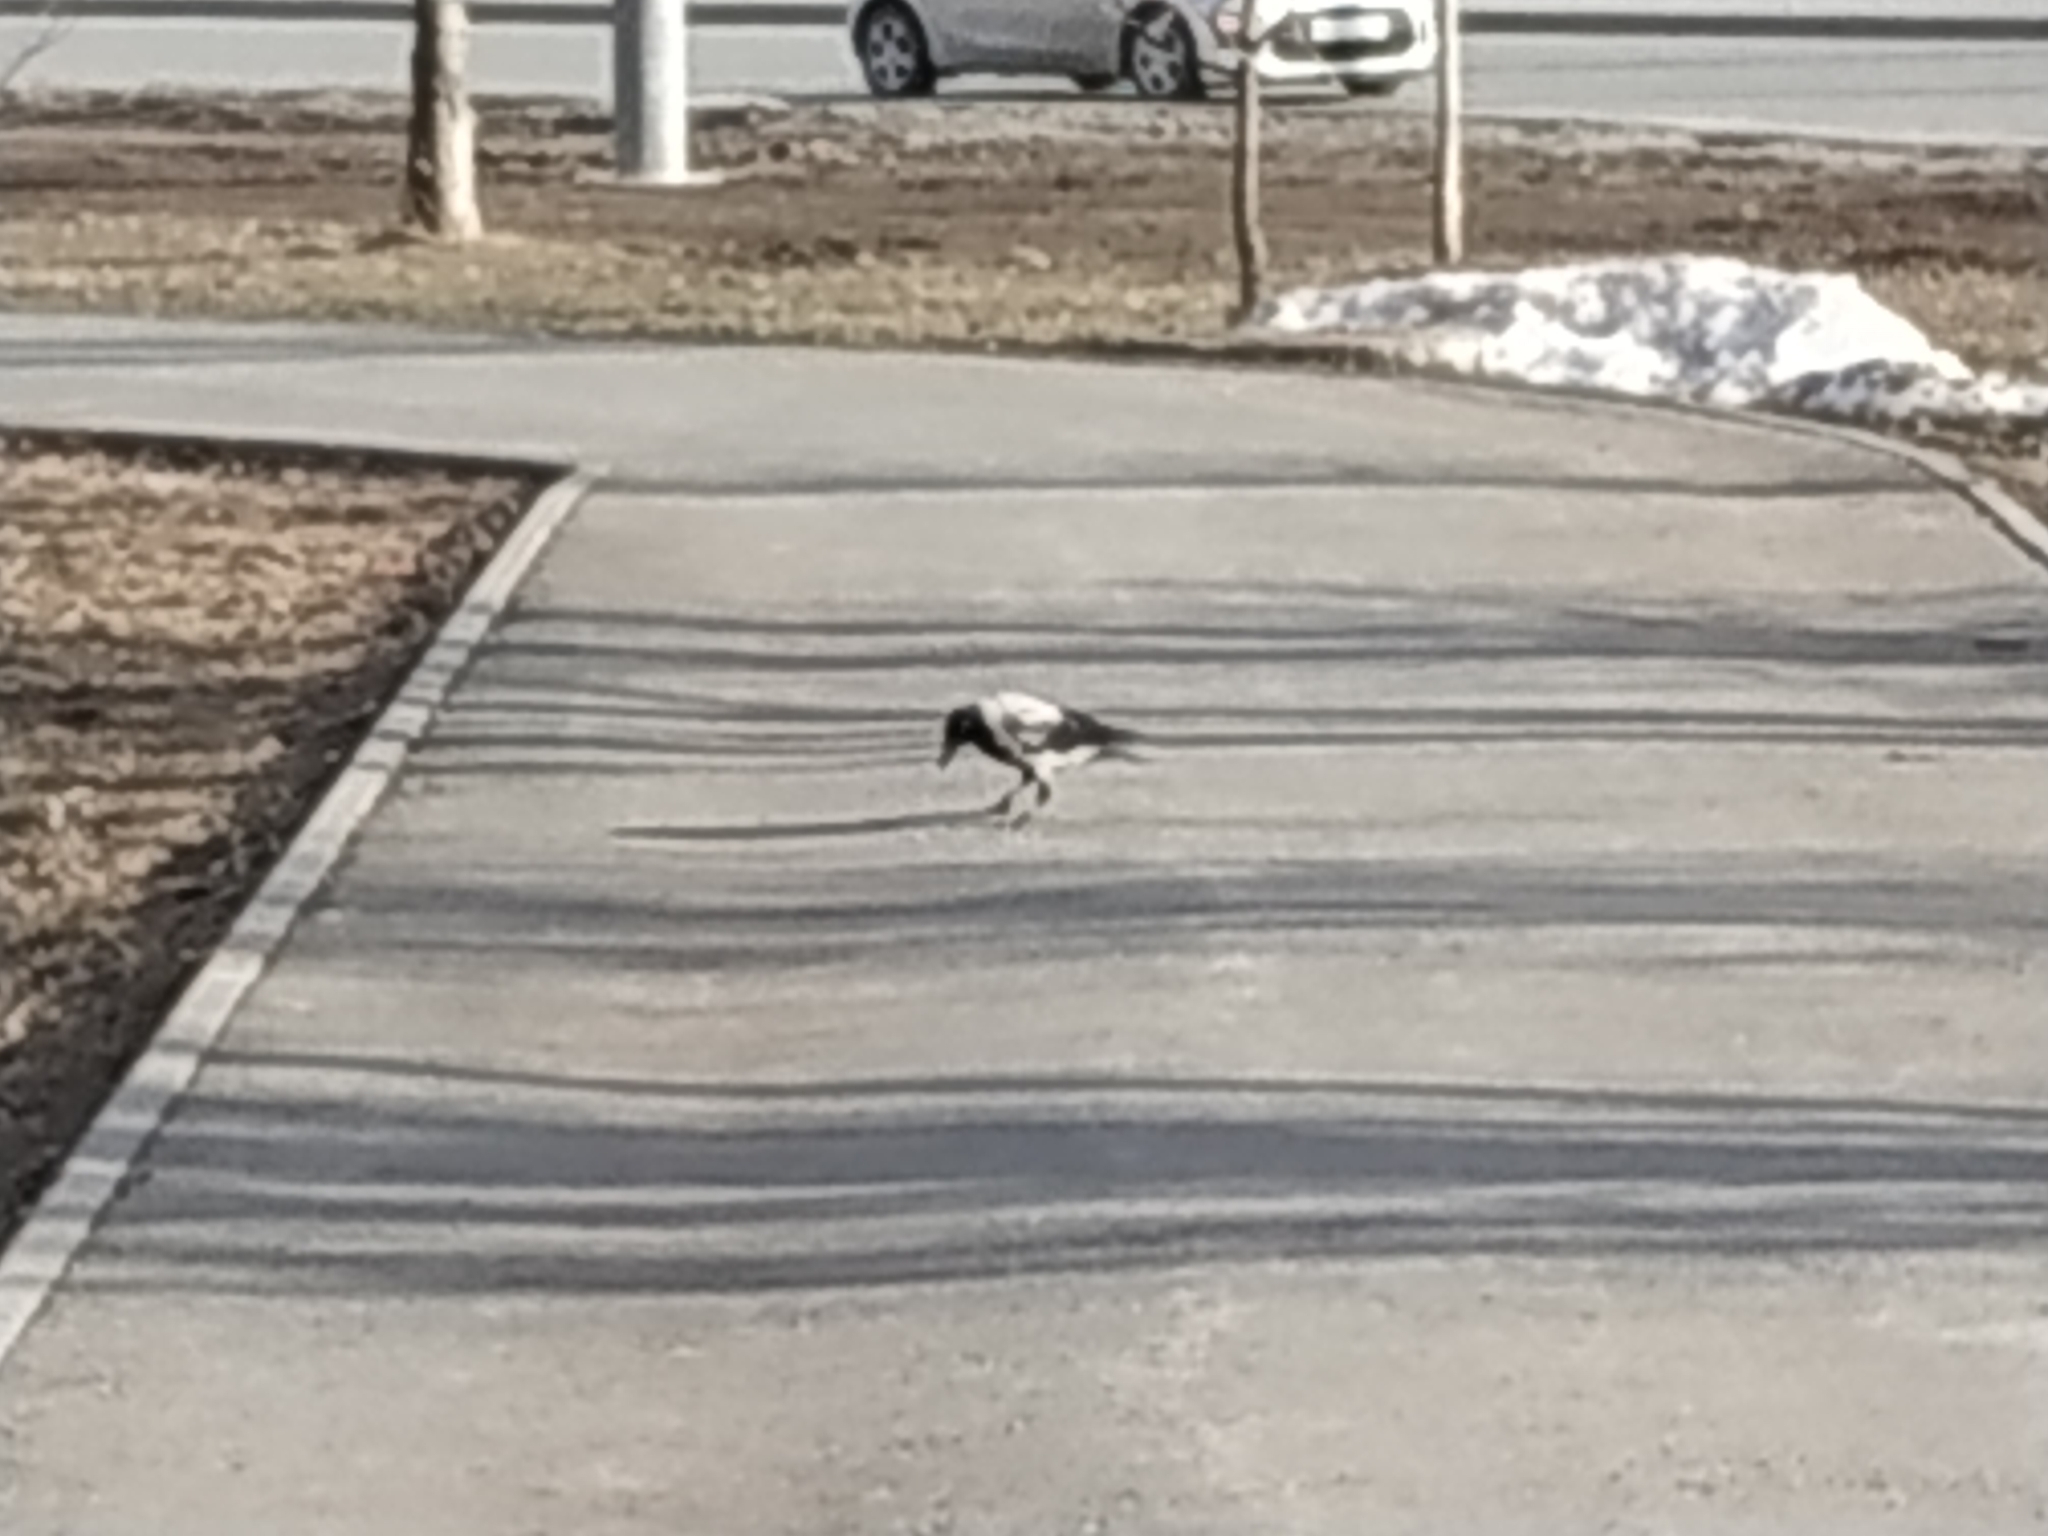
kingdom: Animalia
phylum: Chordata
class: Aves
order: Passeriformes
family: Corvidae
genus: Corvus
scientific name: Corvus cornix
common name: Hooded crow
